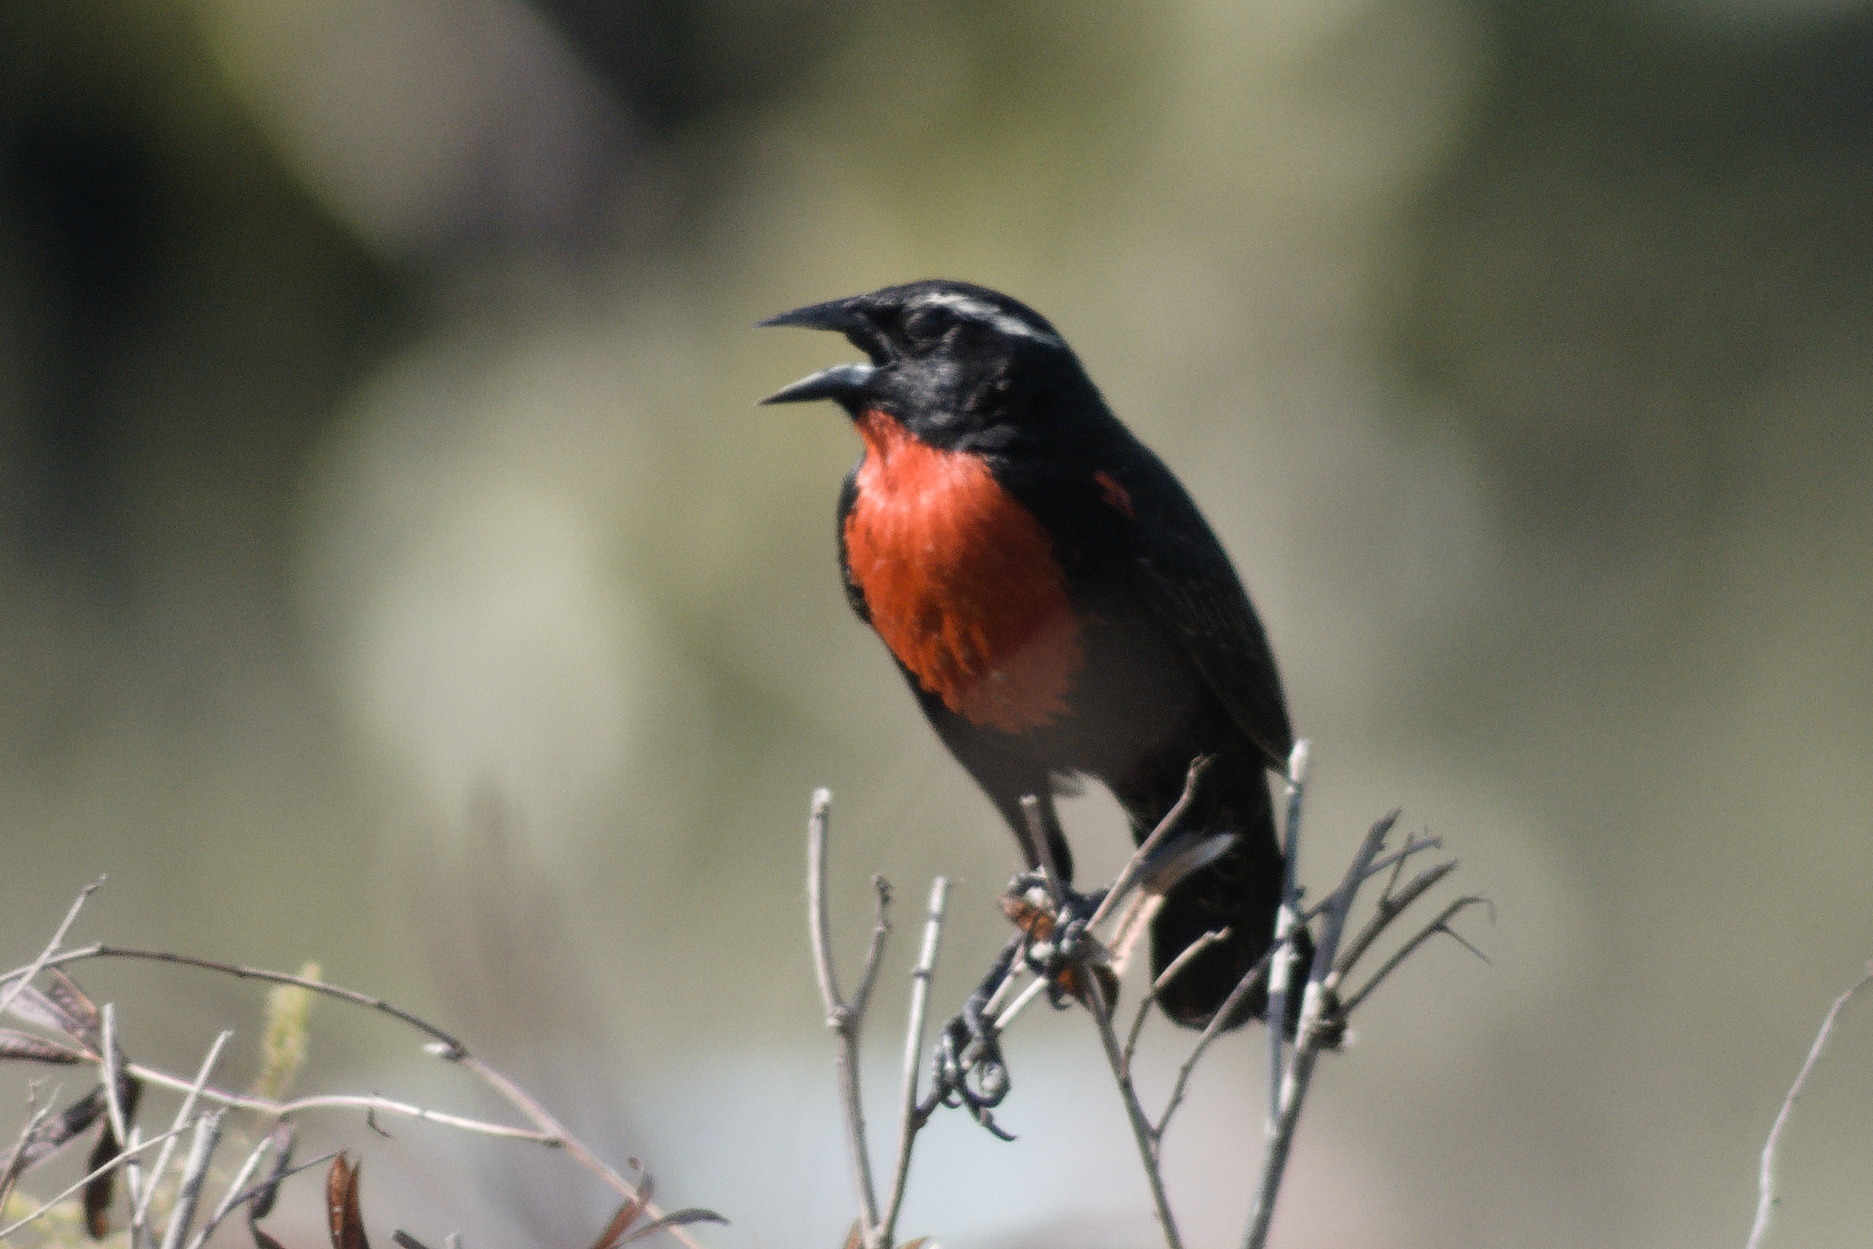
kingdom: Animalia
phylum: Chordata
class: Aves
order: Passeriformes
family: Icteridae
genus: Sturnella
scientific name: Sturnella superciliaris
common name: White-browed blackbird
